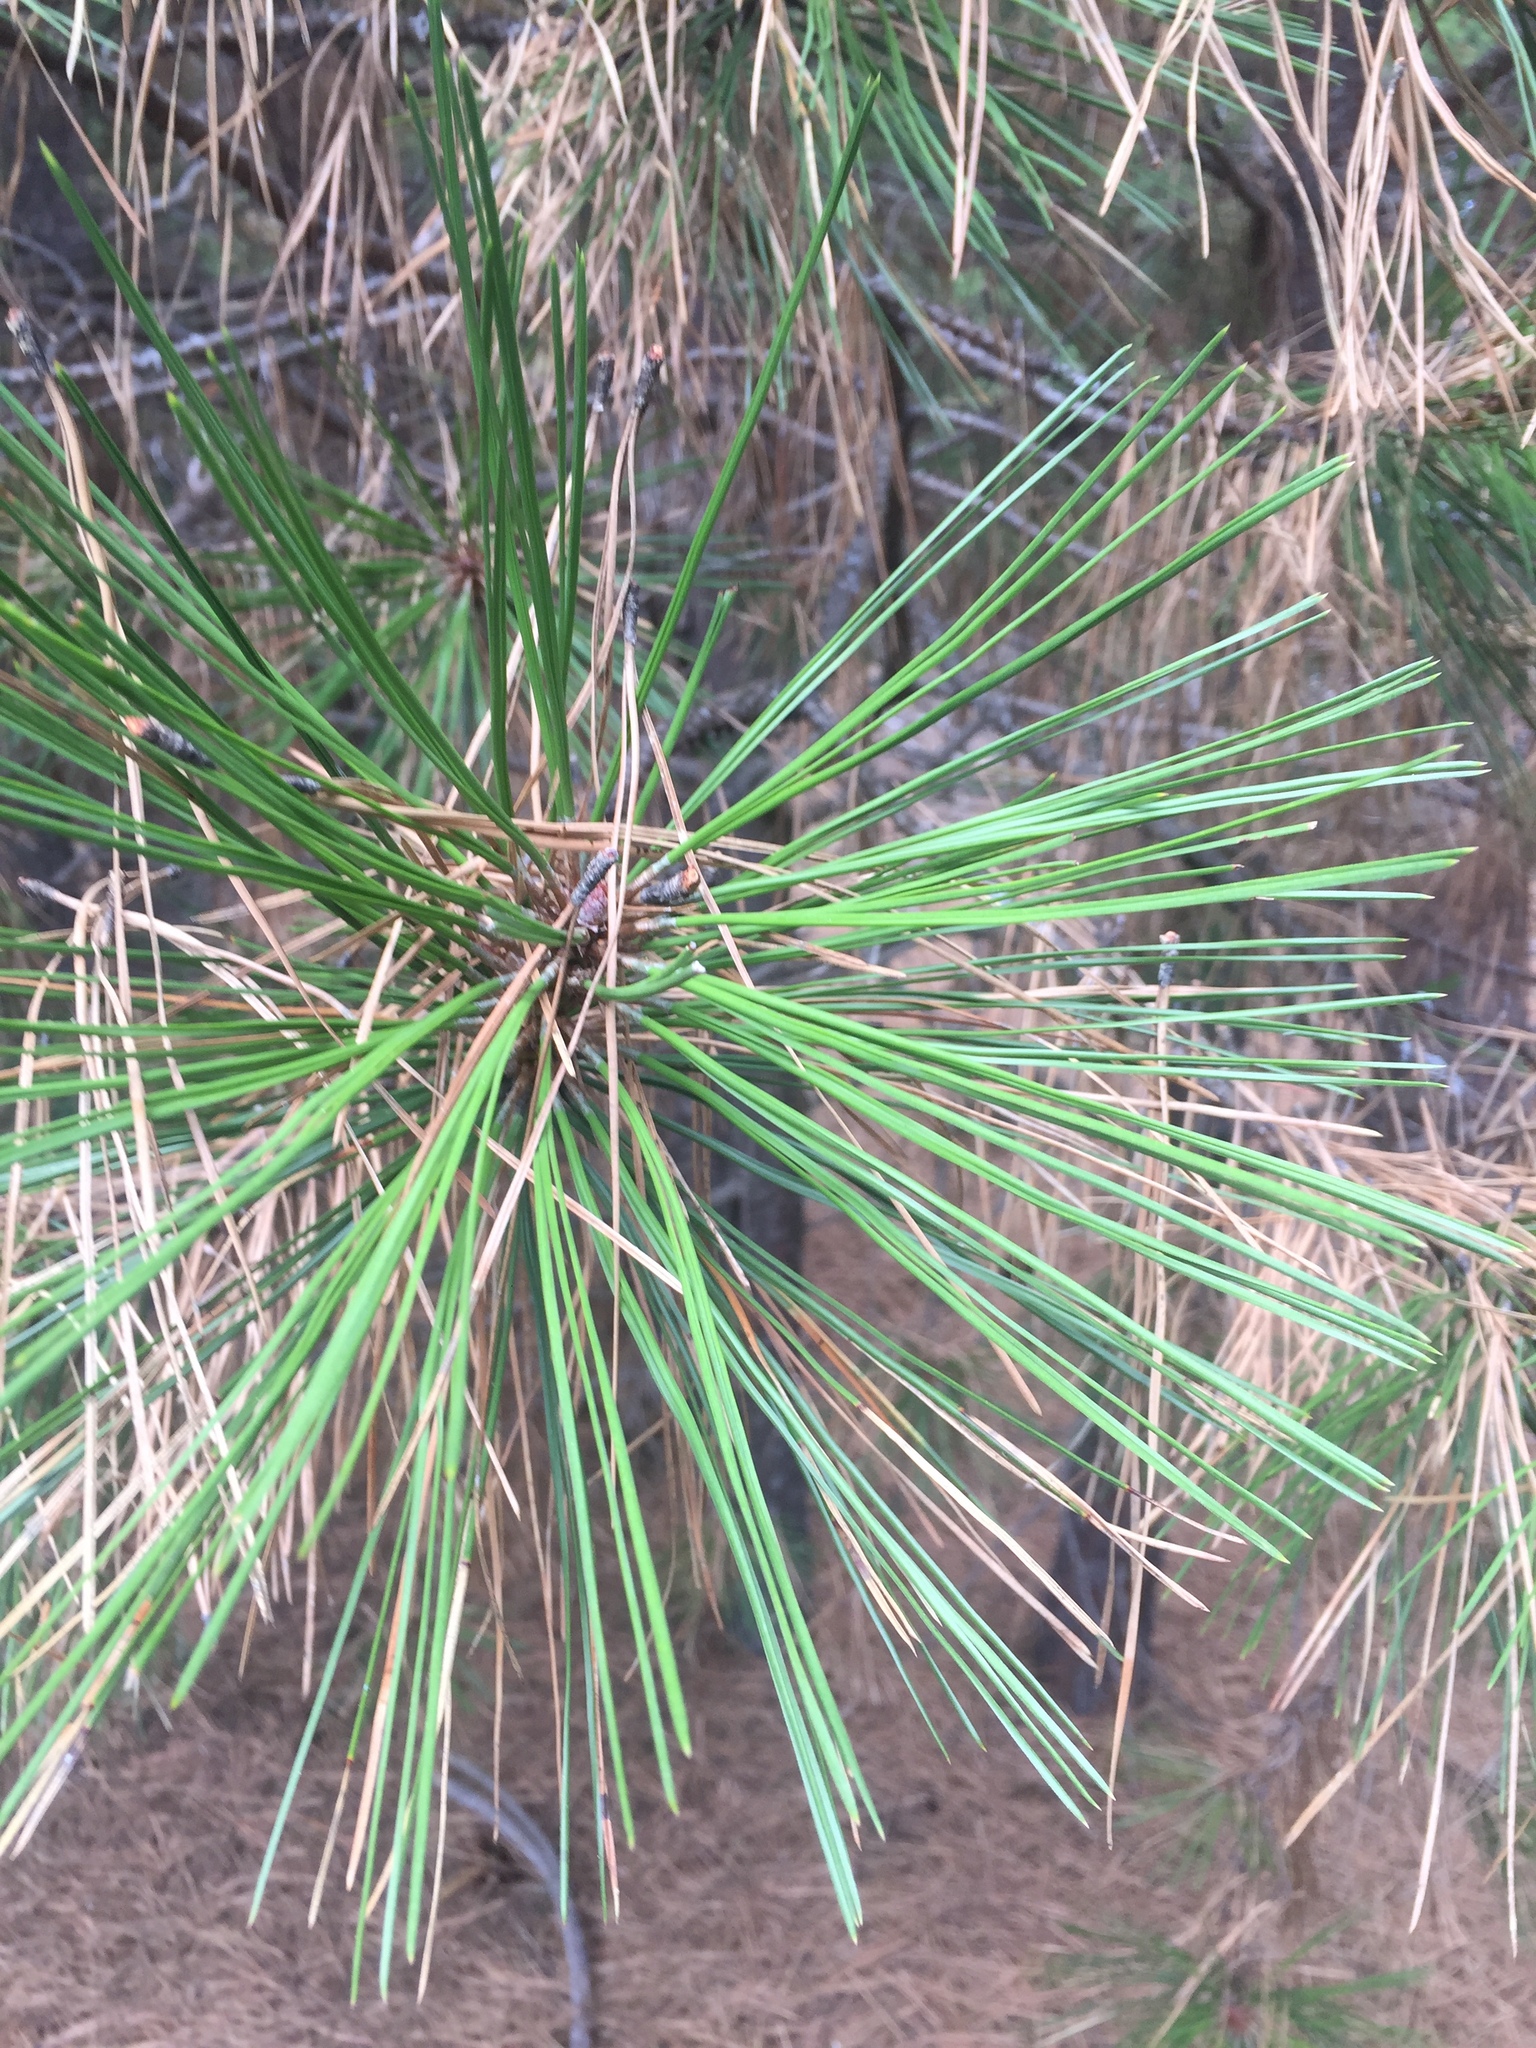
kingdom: Plantae
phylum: Tracheophyta
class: Pinopsida
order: Pinales
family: Pinaceae
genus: Pinus
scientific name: Pinus ponderosa
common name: Western yellow-pine
